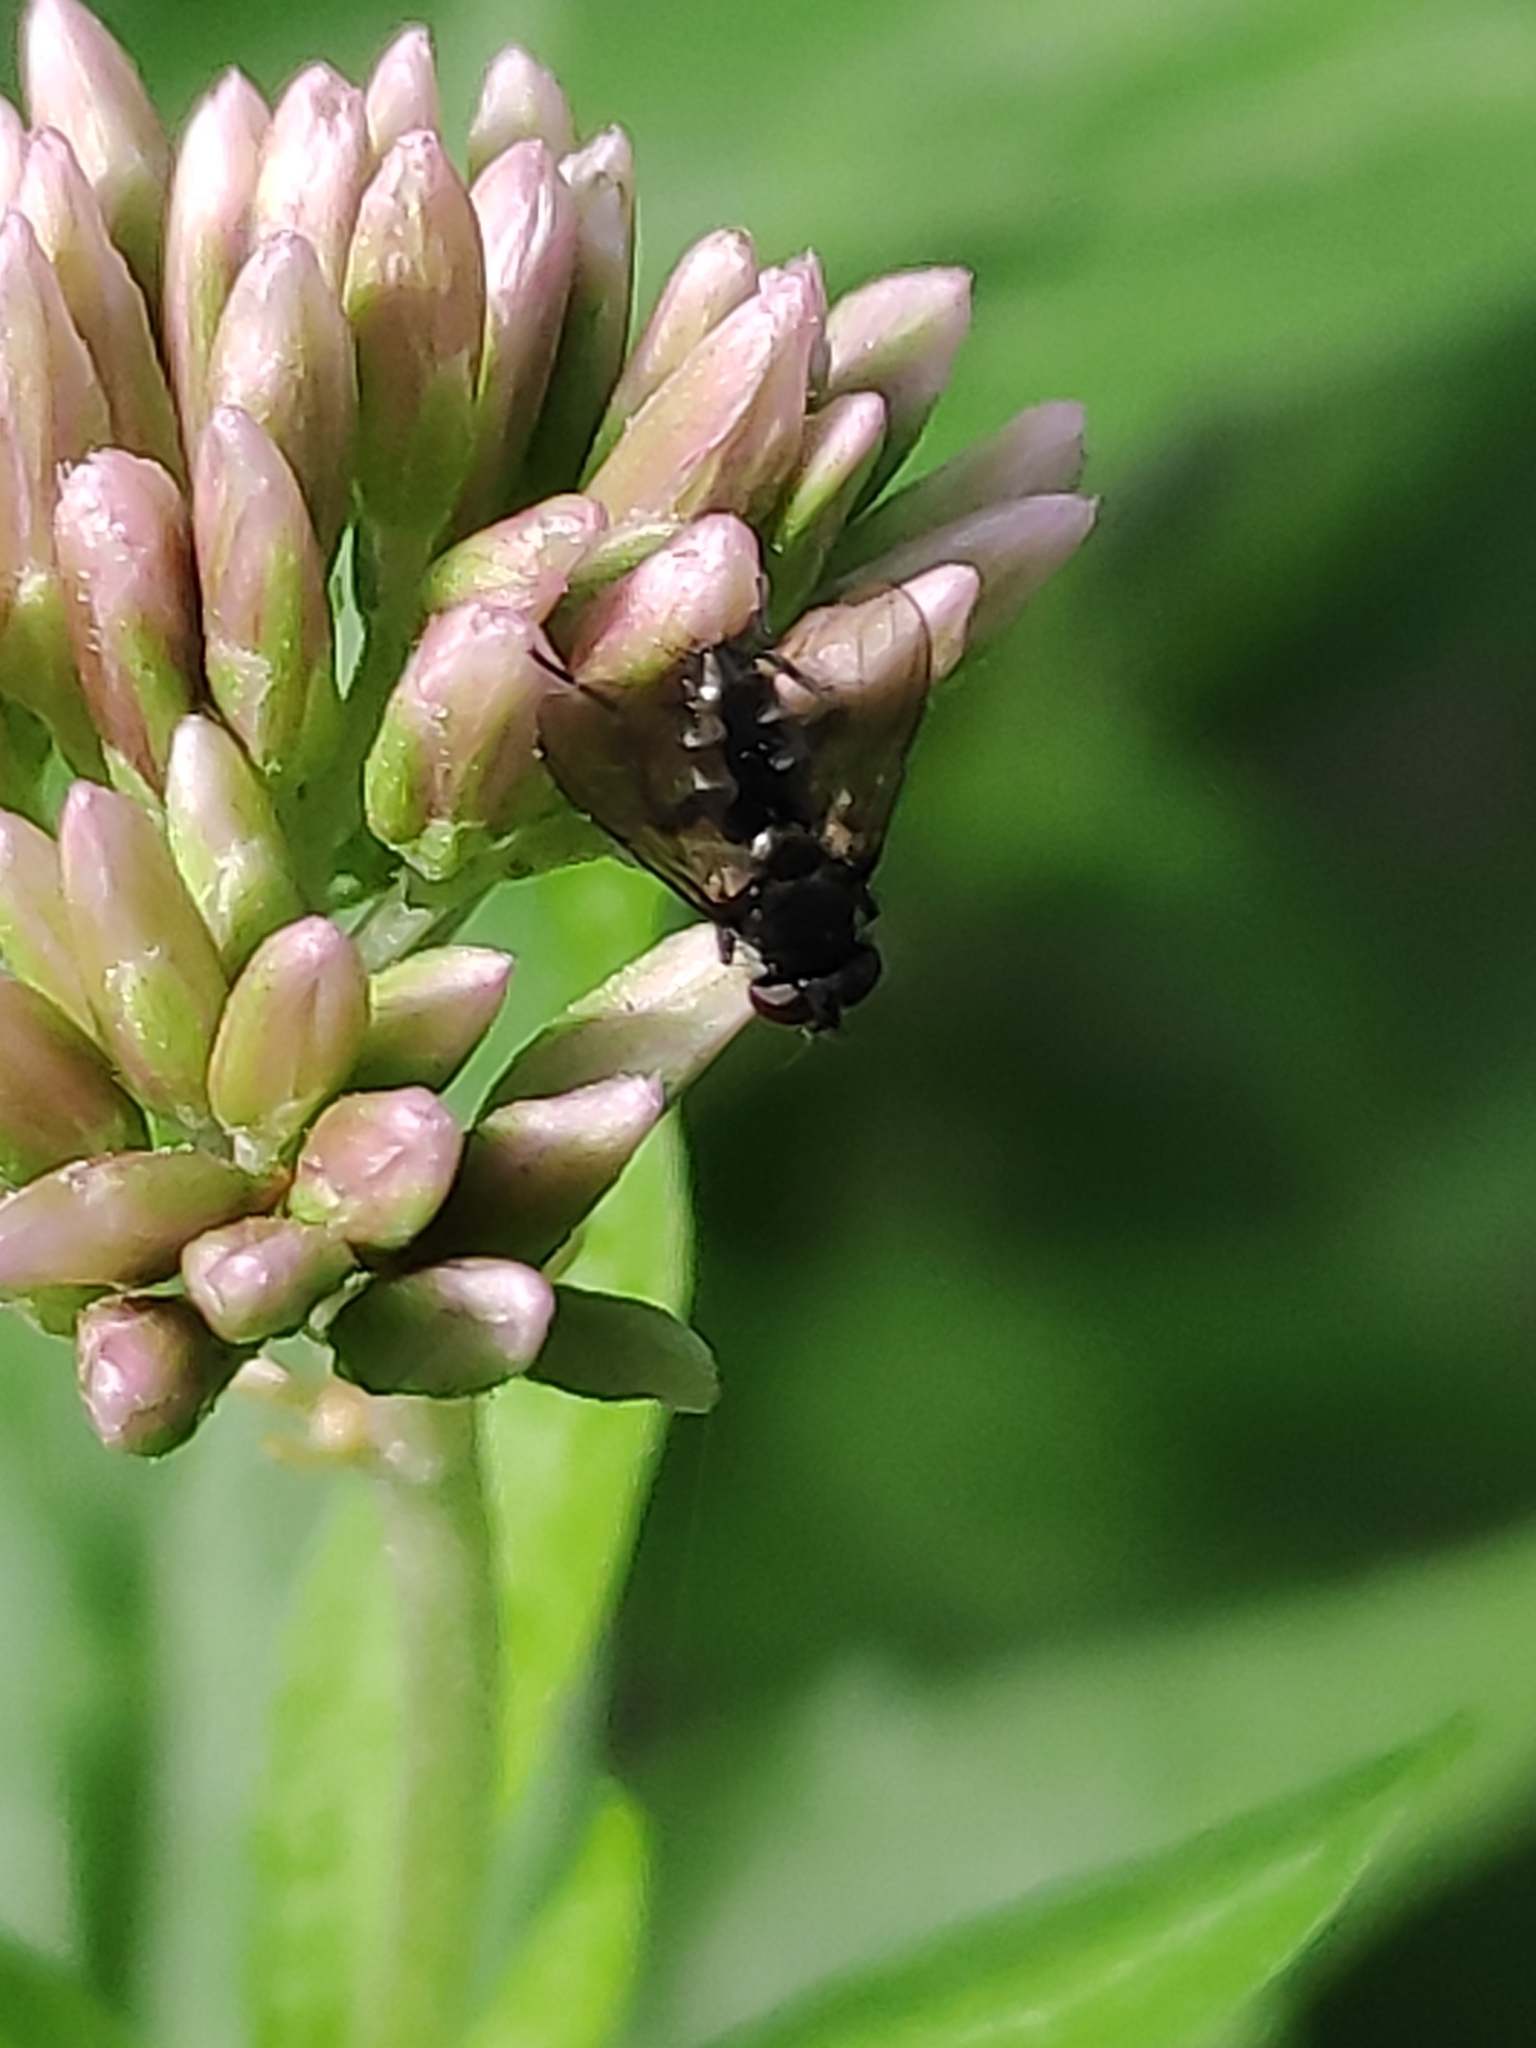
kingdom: Animalia
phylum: Arthropoda
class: Insecta
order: Diptera
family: Calliphoridae
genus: Rhinophora
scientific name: Rhinophora lepida
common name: Pouting woodlouse-fly
